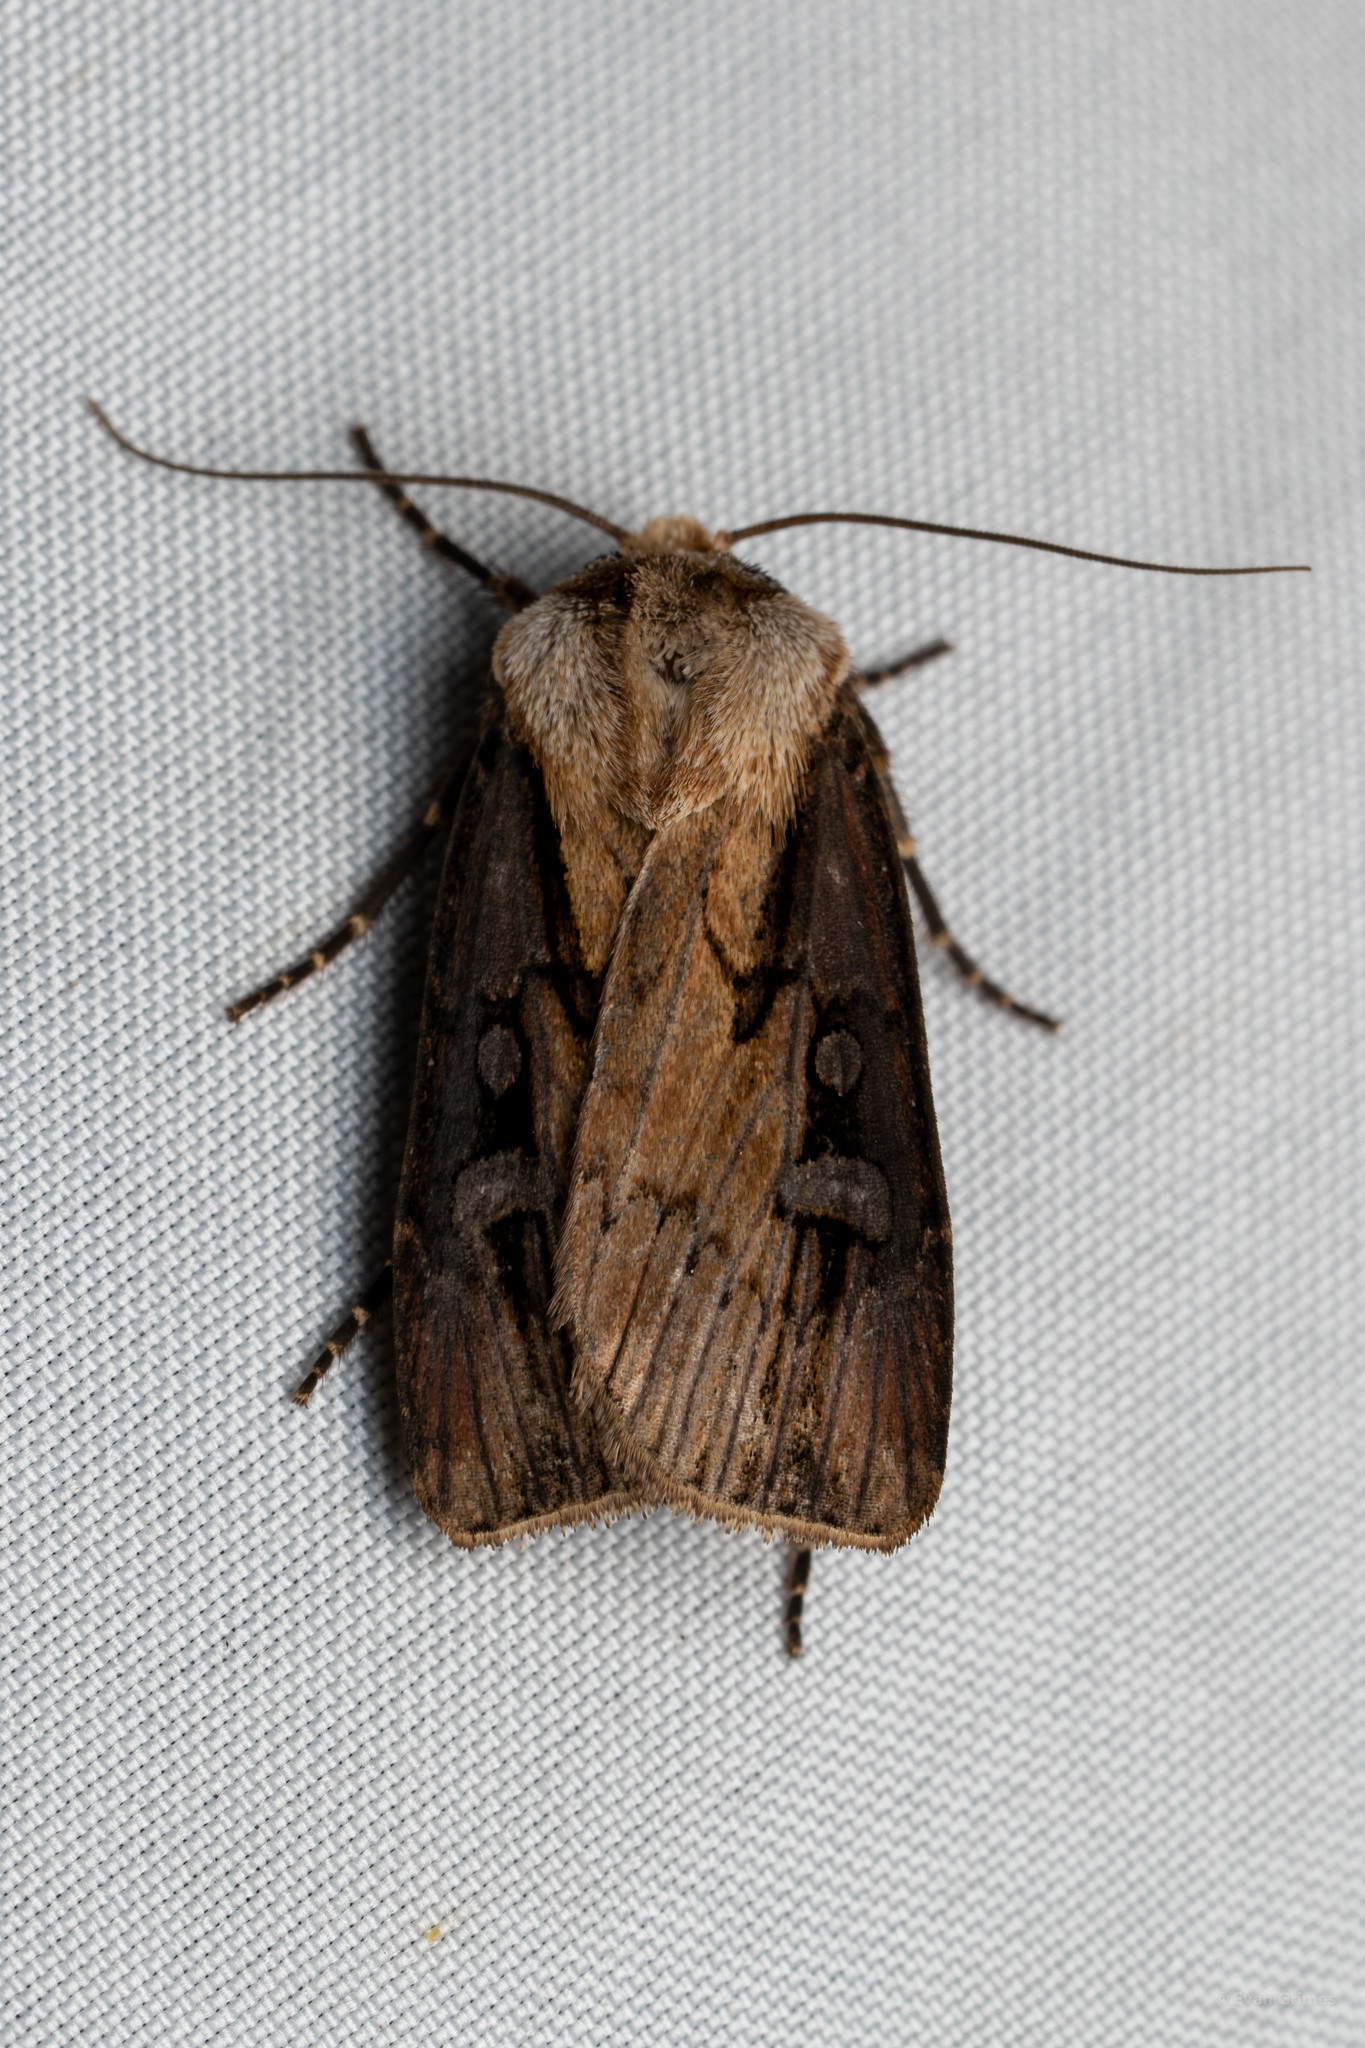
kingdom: Animalia
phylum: Arthropoda
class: Insecta
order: Lepidoptera
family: Noctuidae
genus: Agrotis
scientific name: Agrotis ipsilon
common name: Dark sword-grass
